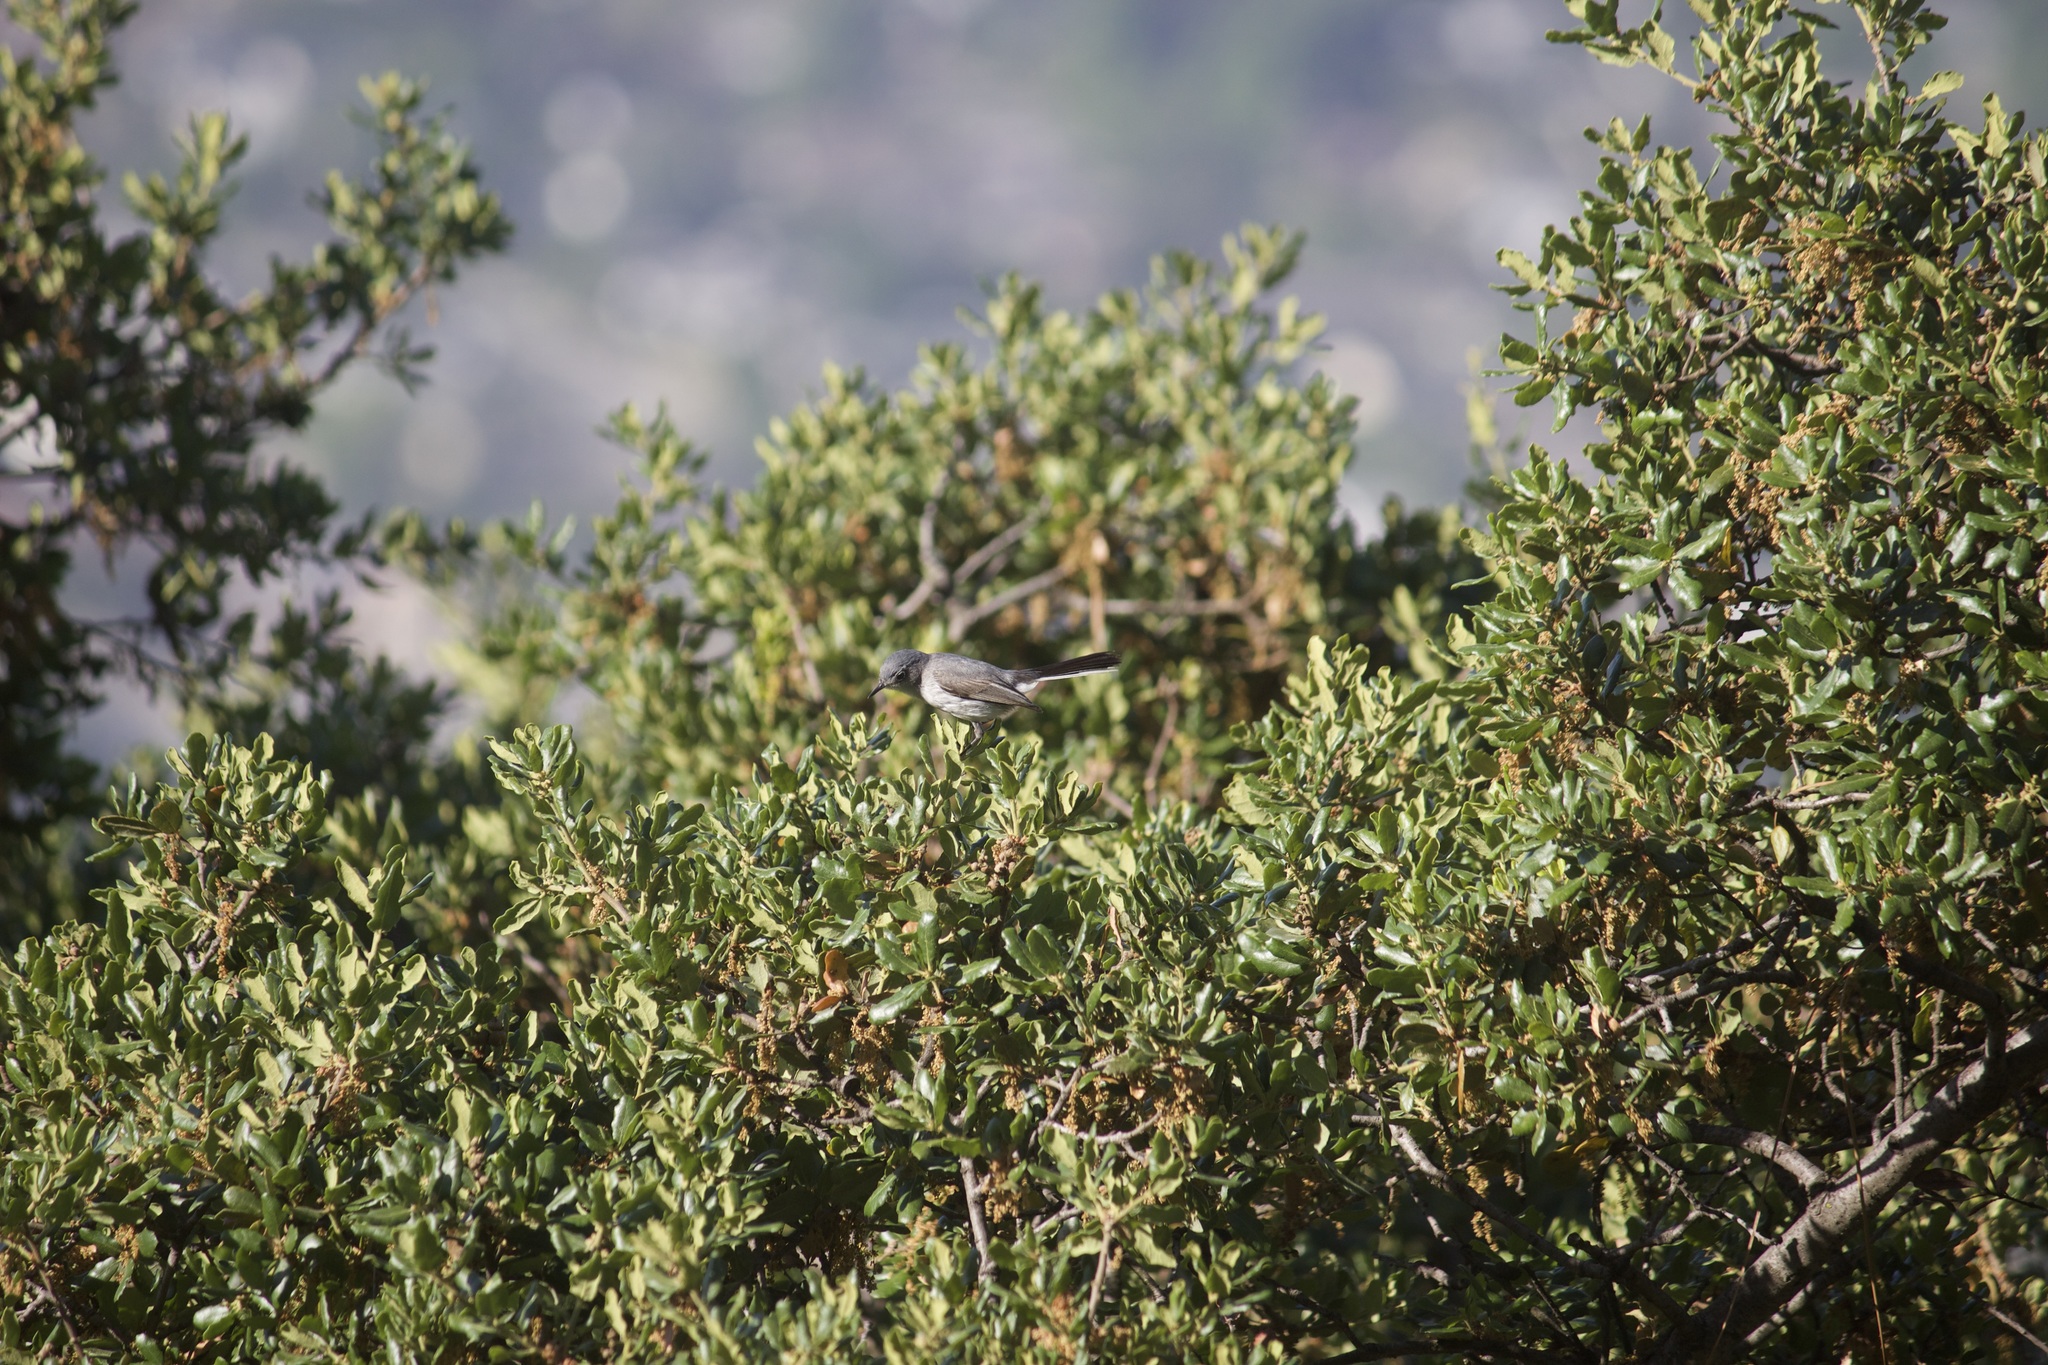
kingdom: Animalia
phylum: Chordata
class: Aves
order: Passeriformes
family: Polioptilidae
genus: Polioptila
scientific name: Polioptila caerulea
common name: Blue-gray gnatcatcher
